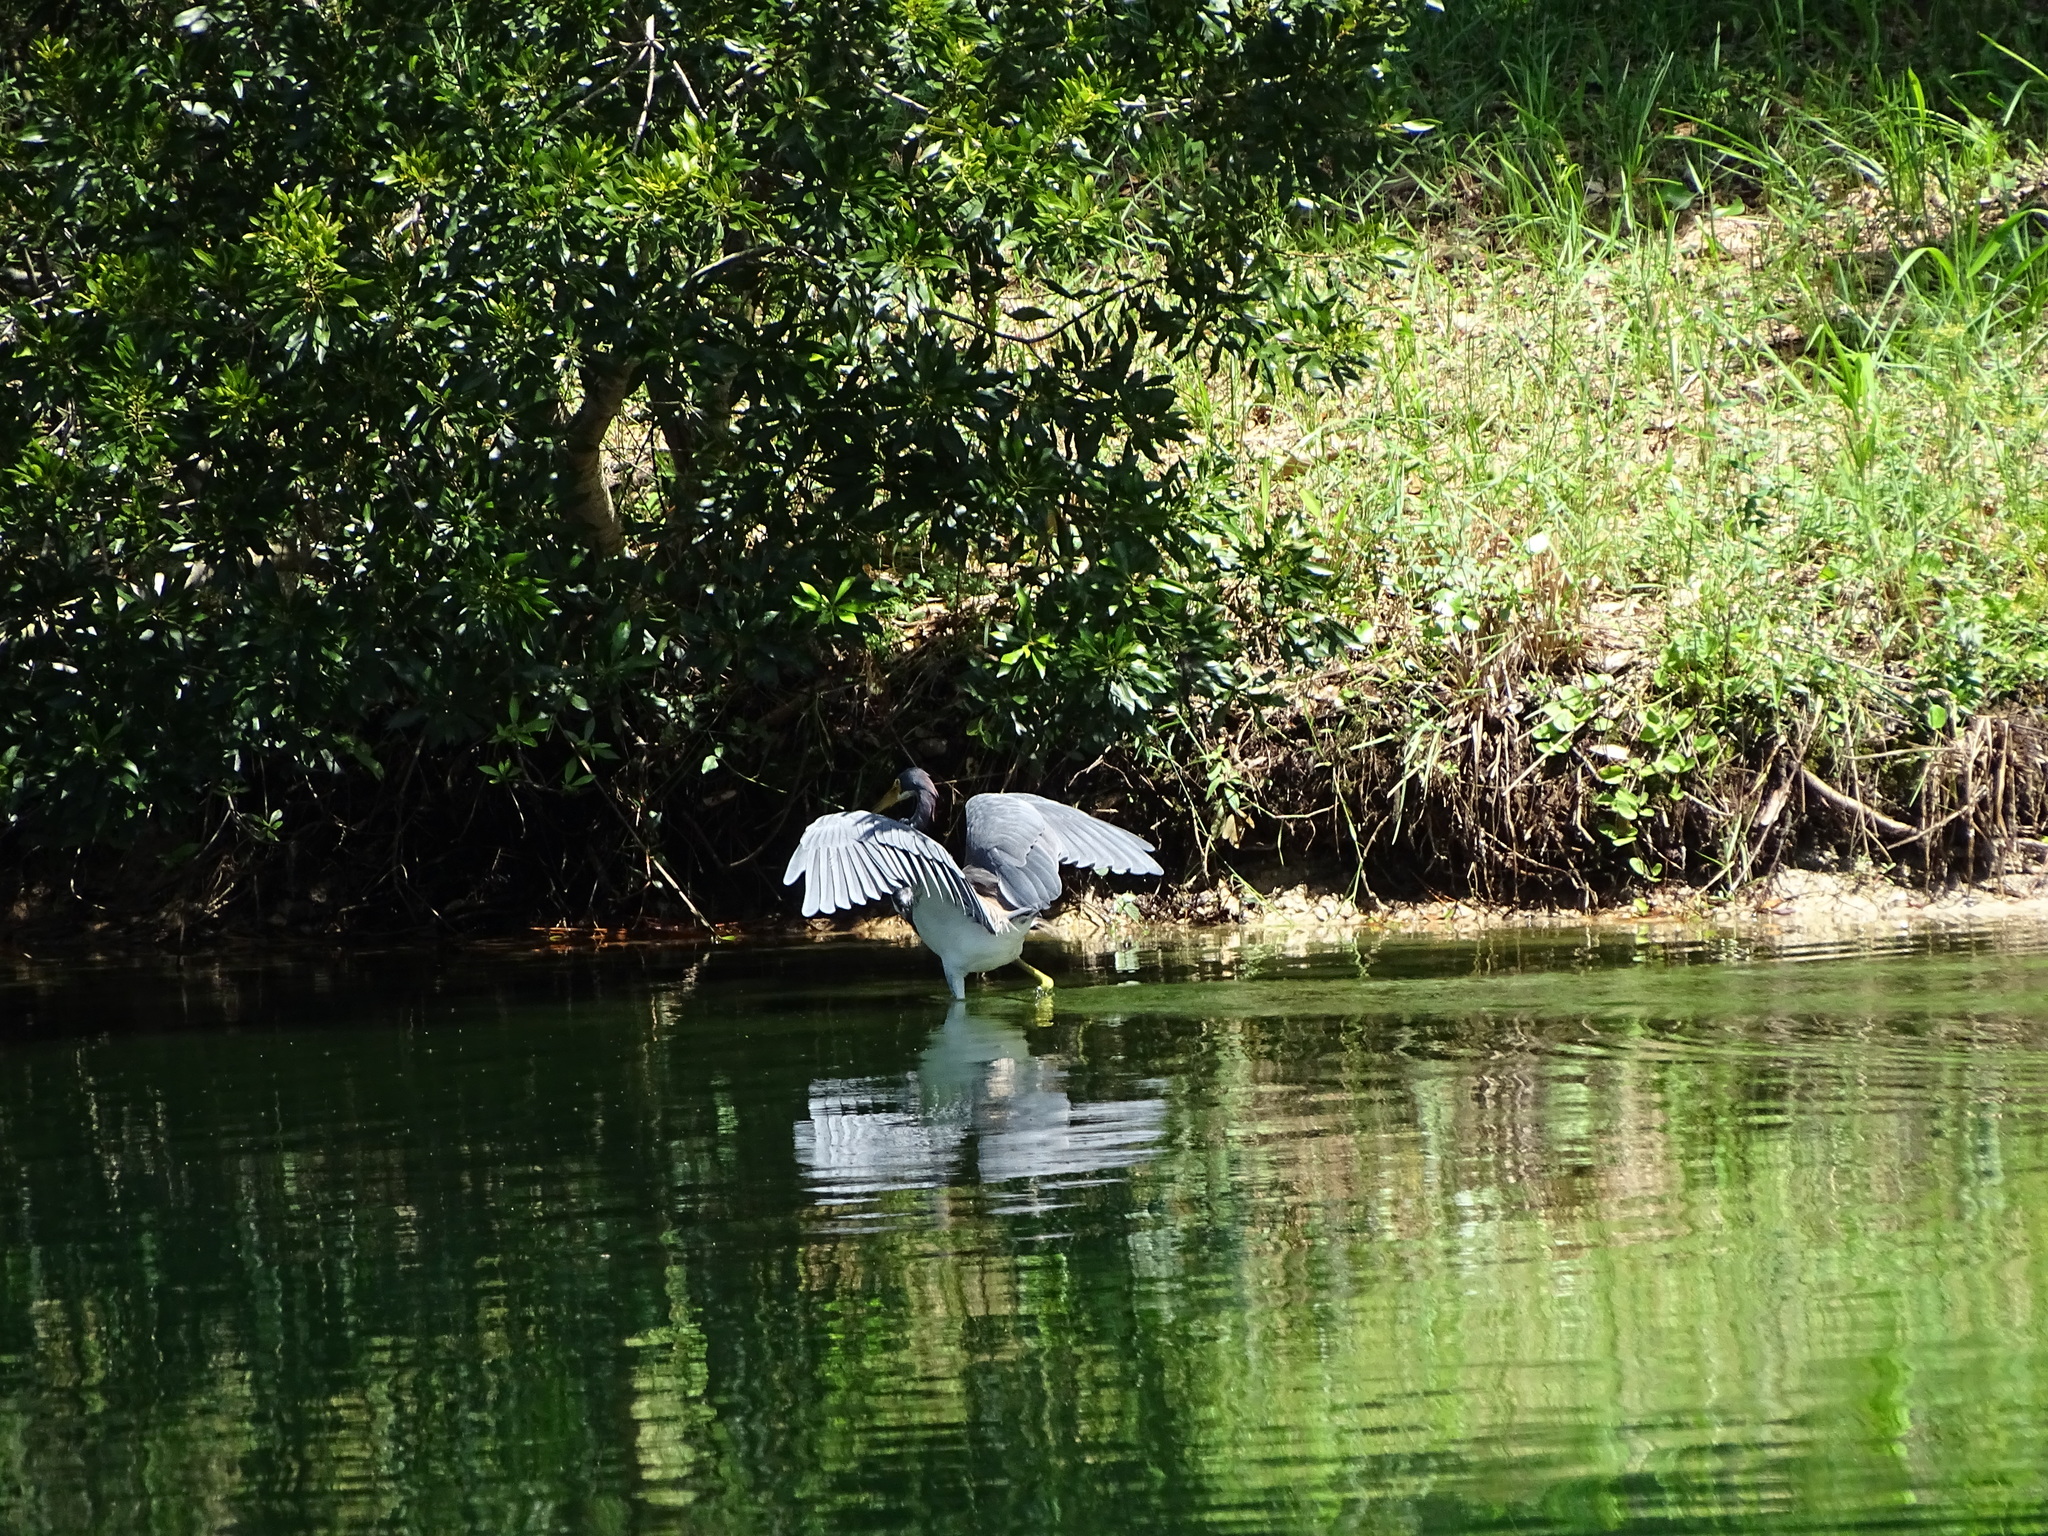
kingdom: Animalia
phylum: Chordata
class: Aves
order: Pelecaniformes
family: Ardeidae
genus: Egretta
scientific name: Egretta tricolor
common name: Tricolored heron
